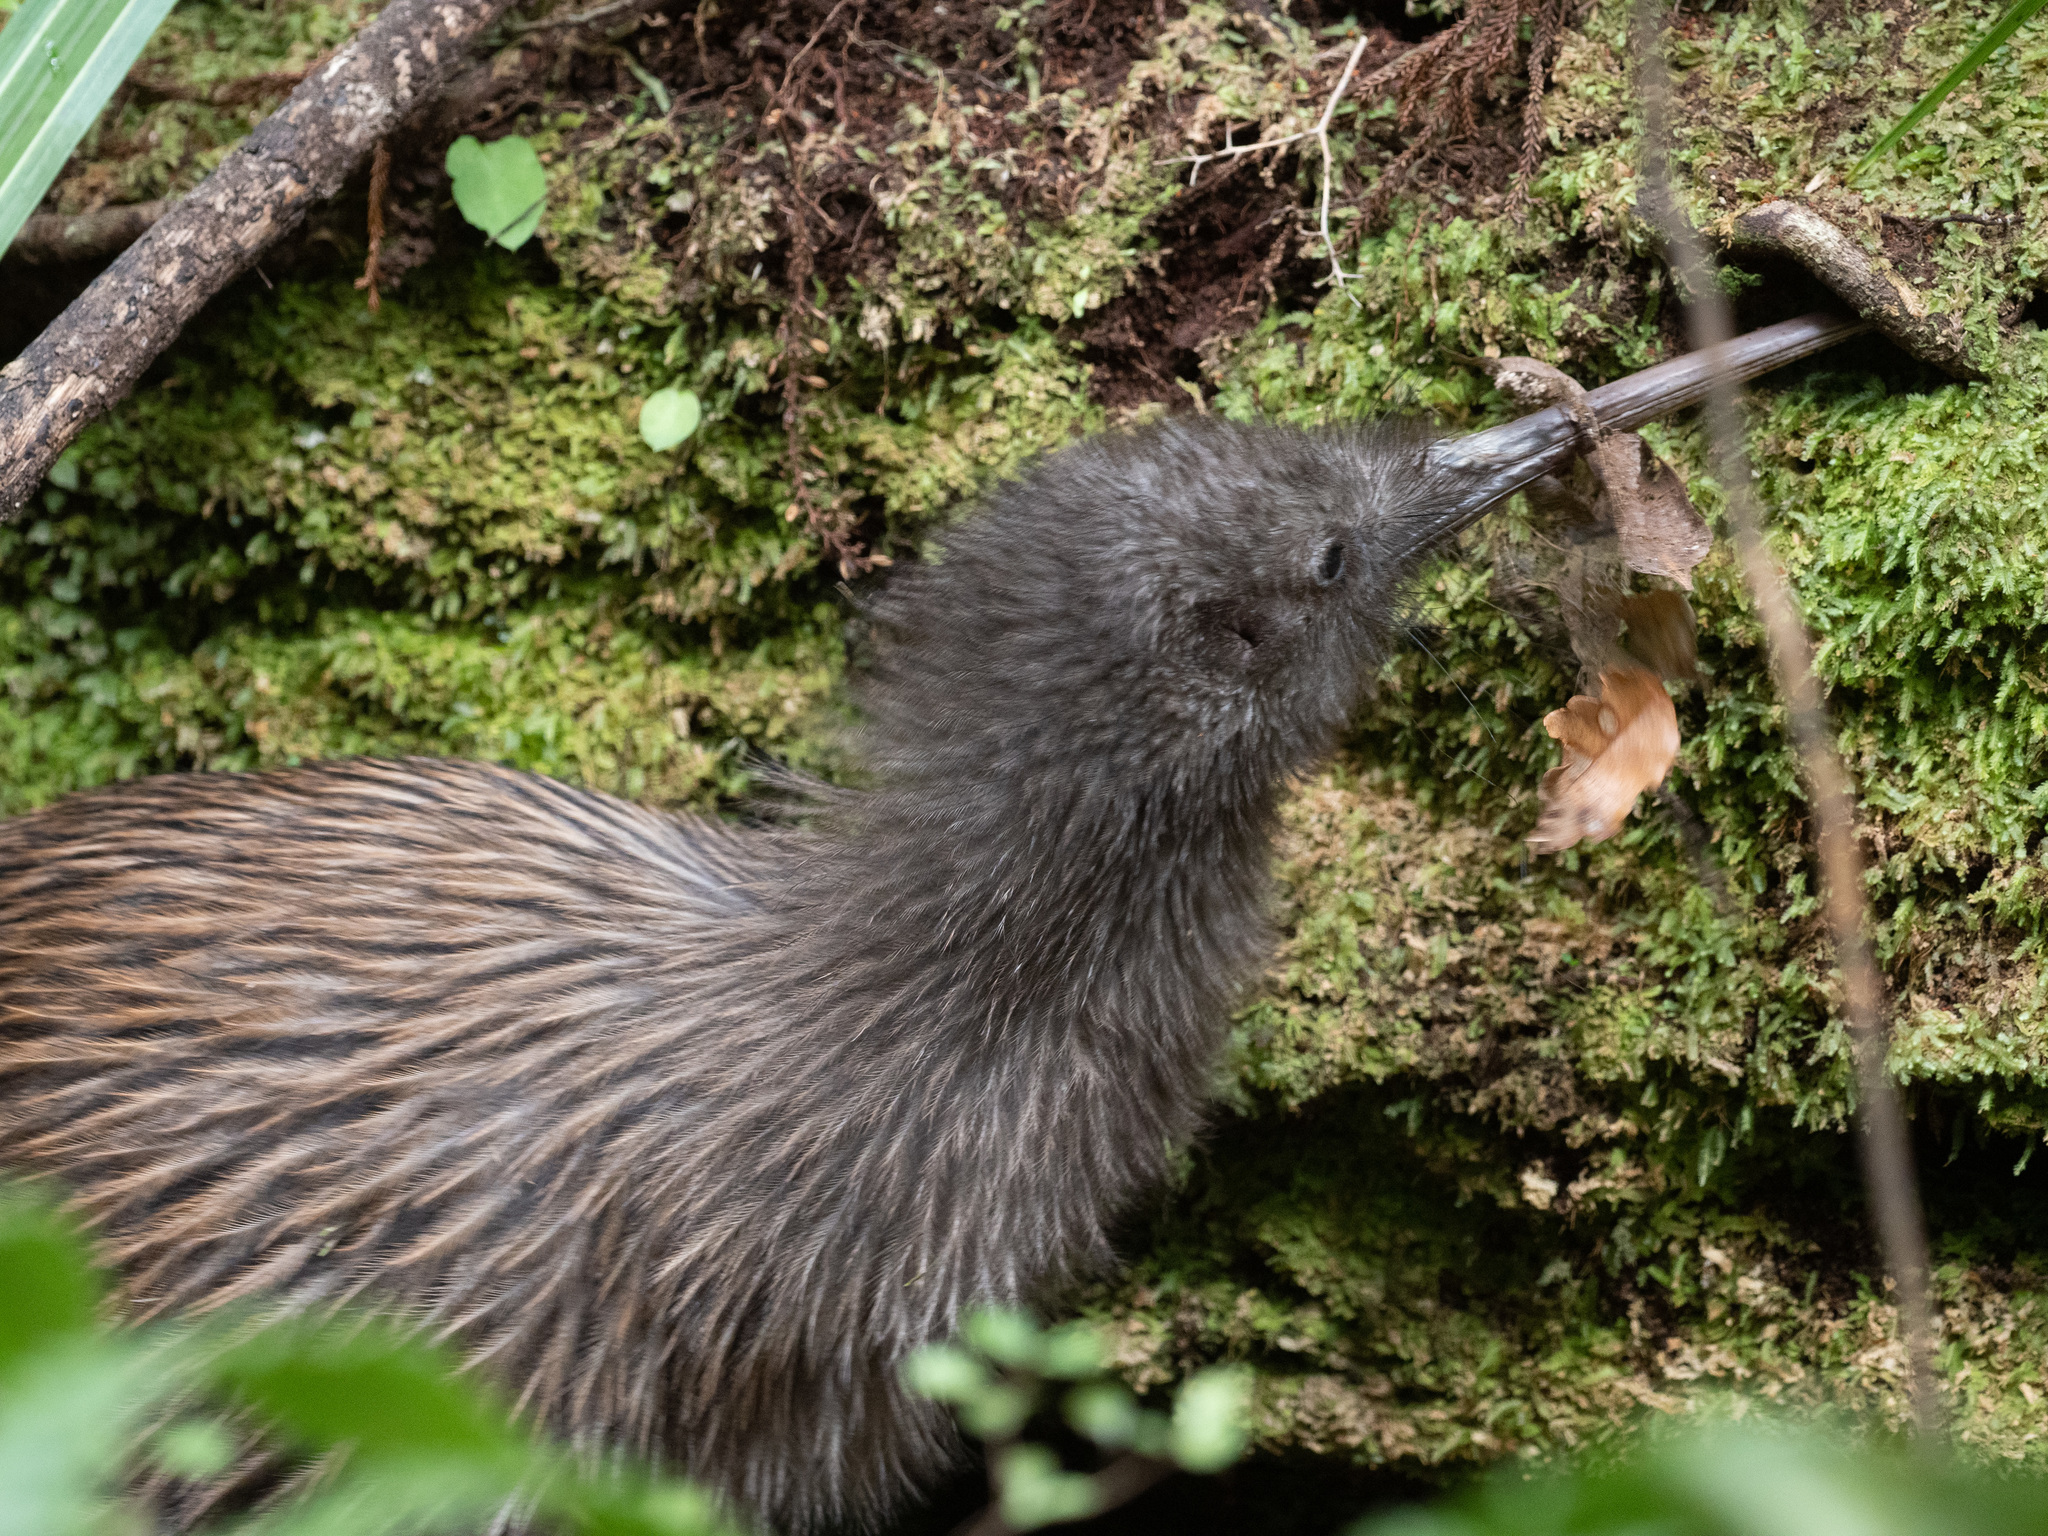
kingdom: Animalia
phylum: Chordata
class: Aves
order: Apterygiformes
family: Apterygidae
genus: Apteryx
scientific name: Apteryx australis
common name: Southern brown kiwi
